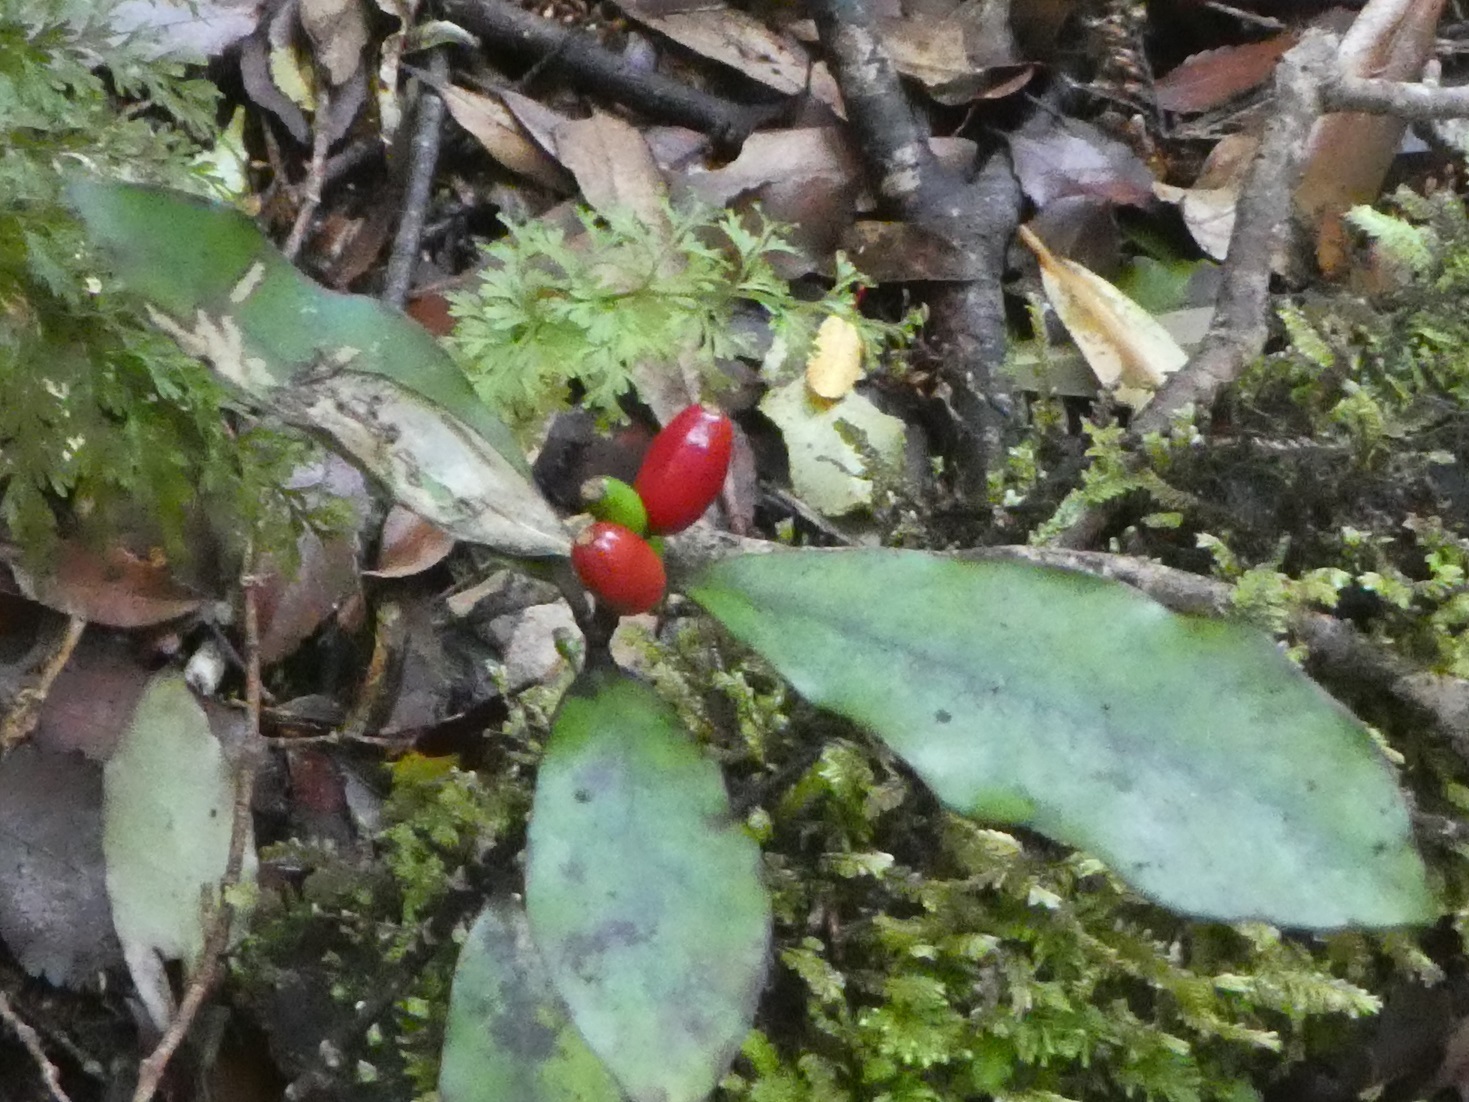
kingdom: Plantae
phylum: Tracheophyta
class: Magnoliopsida
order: Asterales
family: Alseuosmiaceae
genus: Alseuosmia
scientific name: Alseuosmia pusilla
